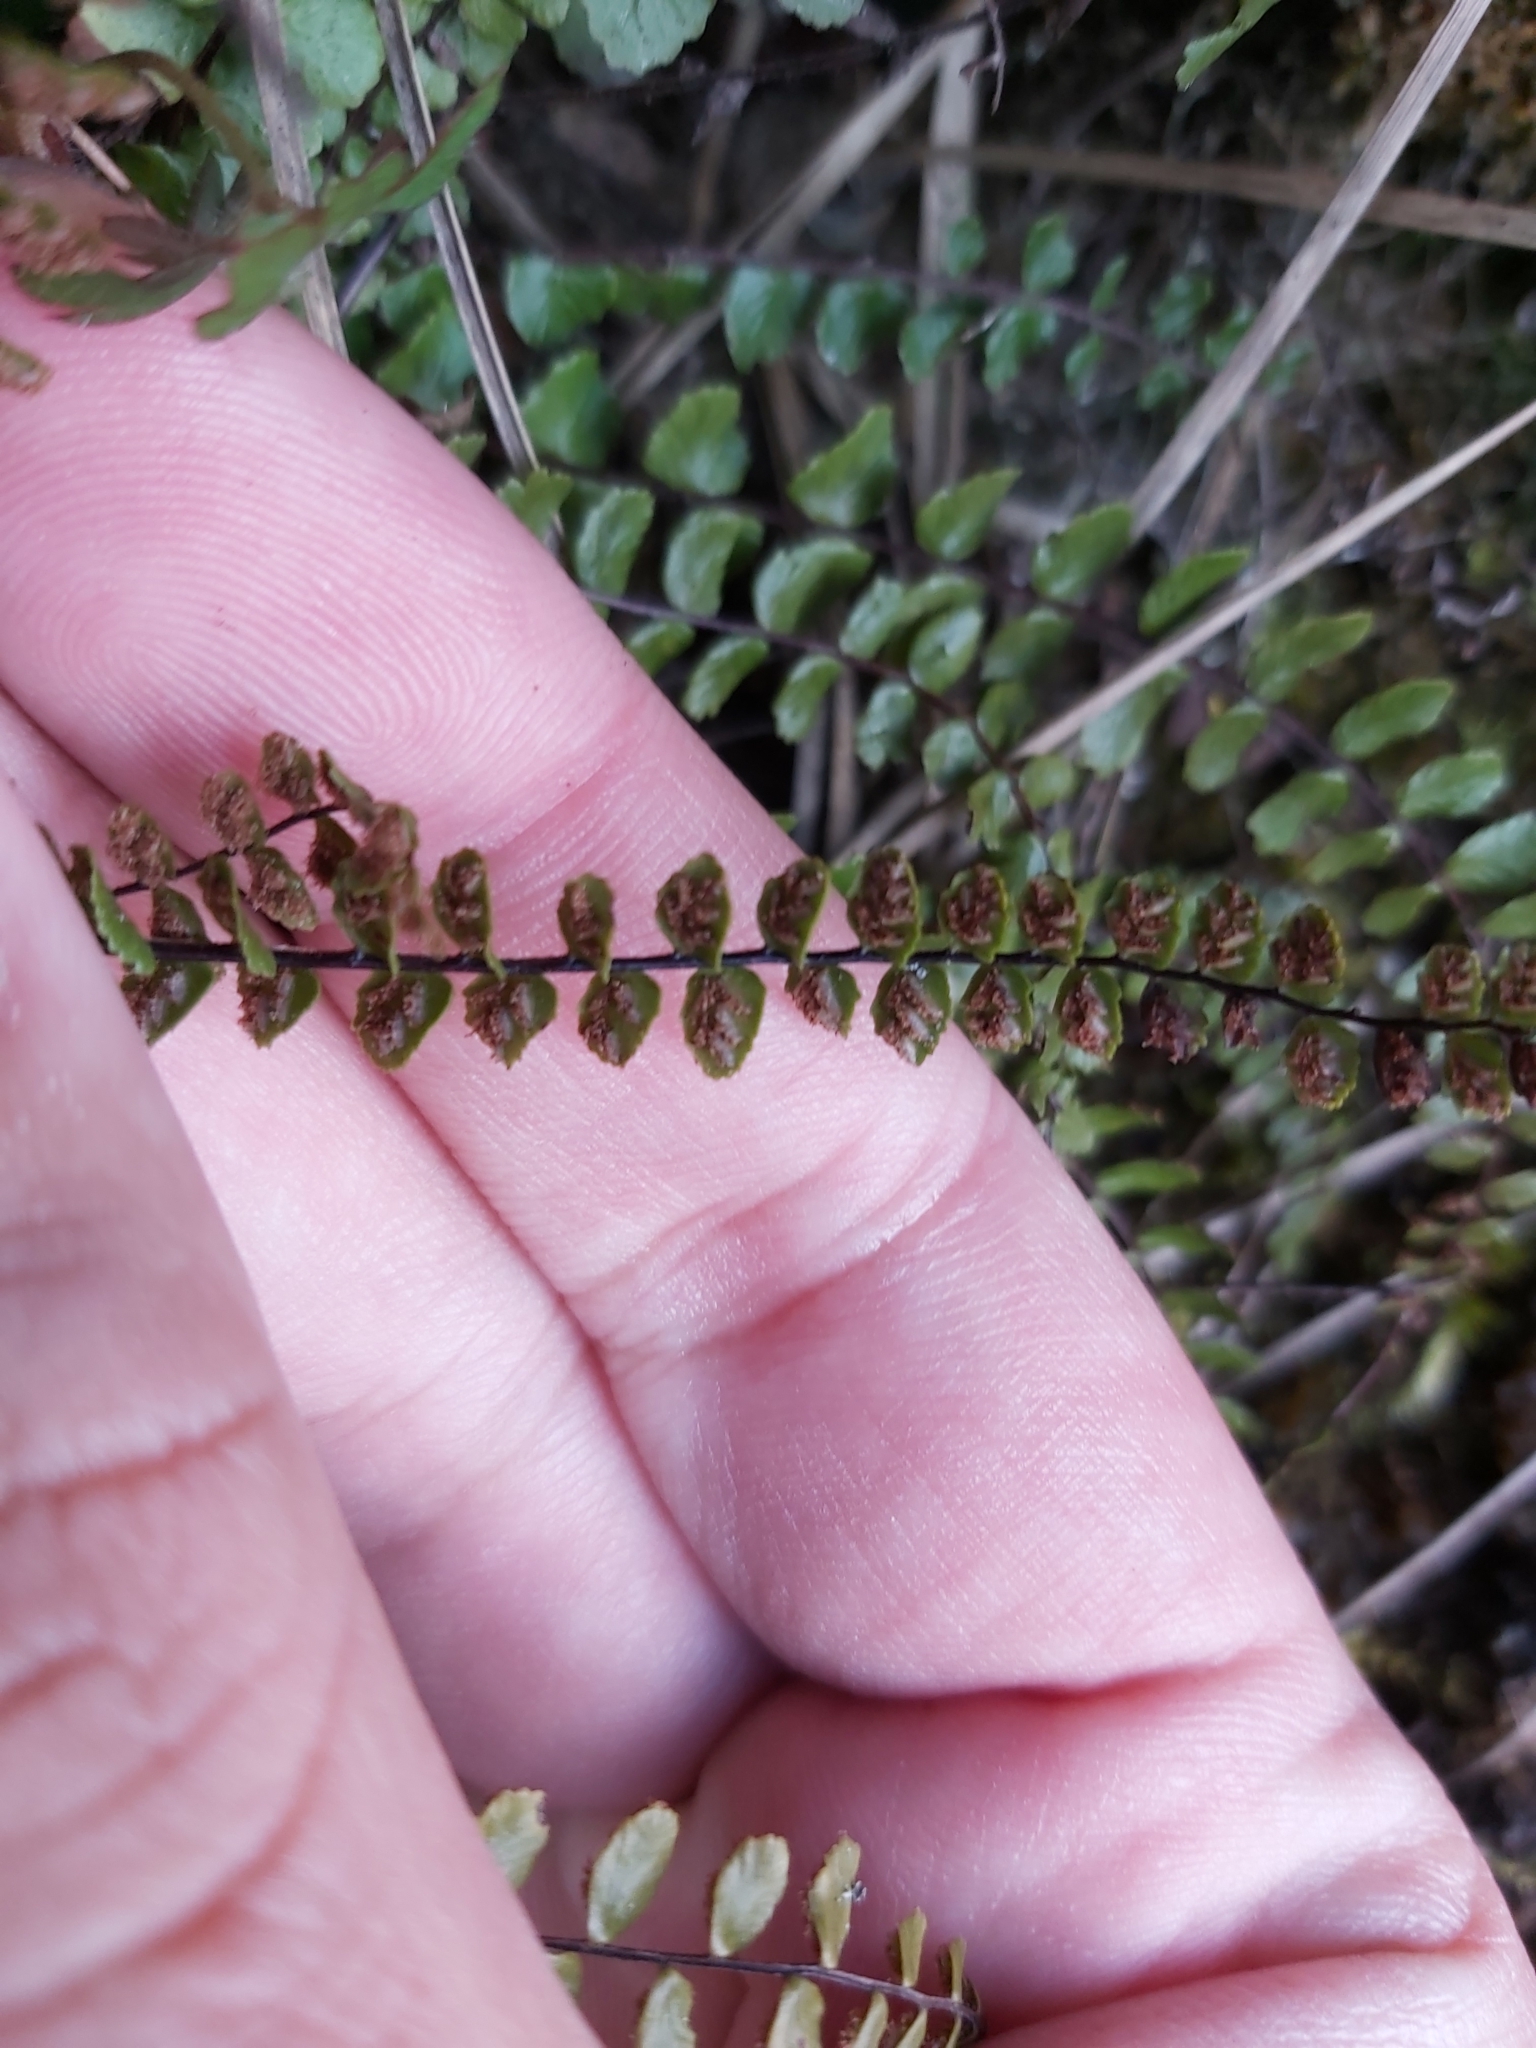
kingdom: Plantae
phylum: Tracheophyta
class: Polypodiopsida
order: Polypodiales
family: Aspleniaceae
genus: Asplenium
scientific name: Asplenium trichomanes
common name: Maidenhair spleenwort
